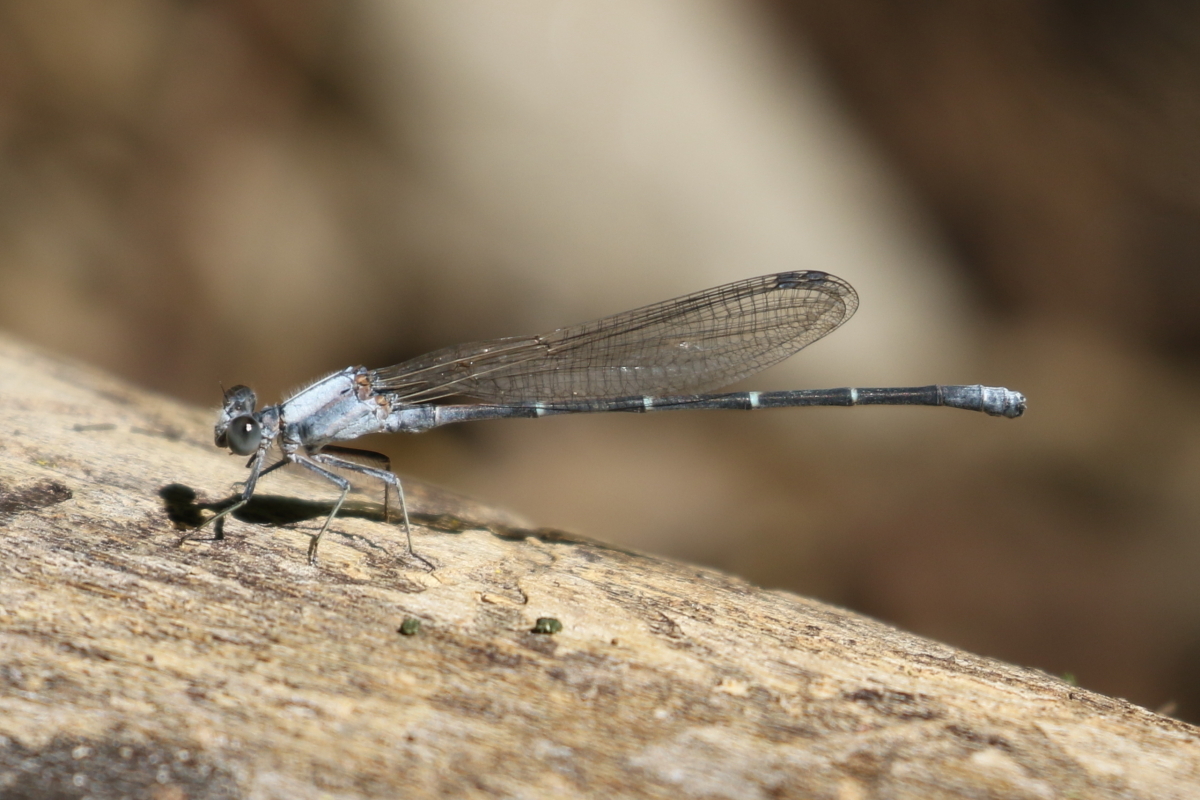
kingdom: Animalia
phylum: Arthropoda
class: Insecta
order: Odonata
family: Coenagrionidae
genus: Argia
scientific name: Argia moesta
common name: Powdered dancer
